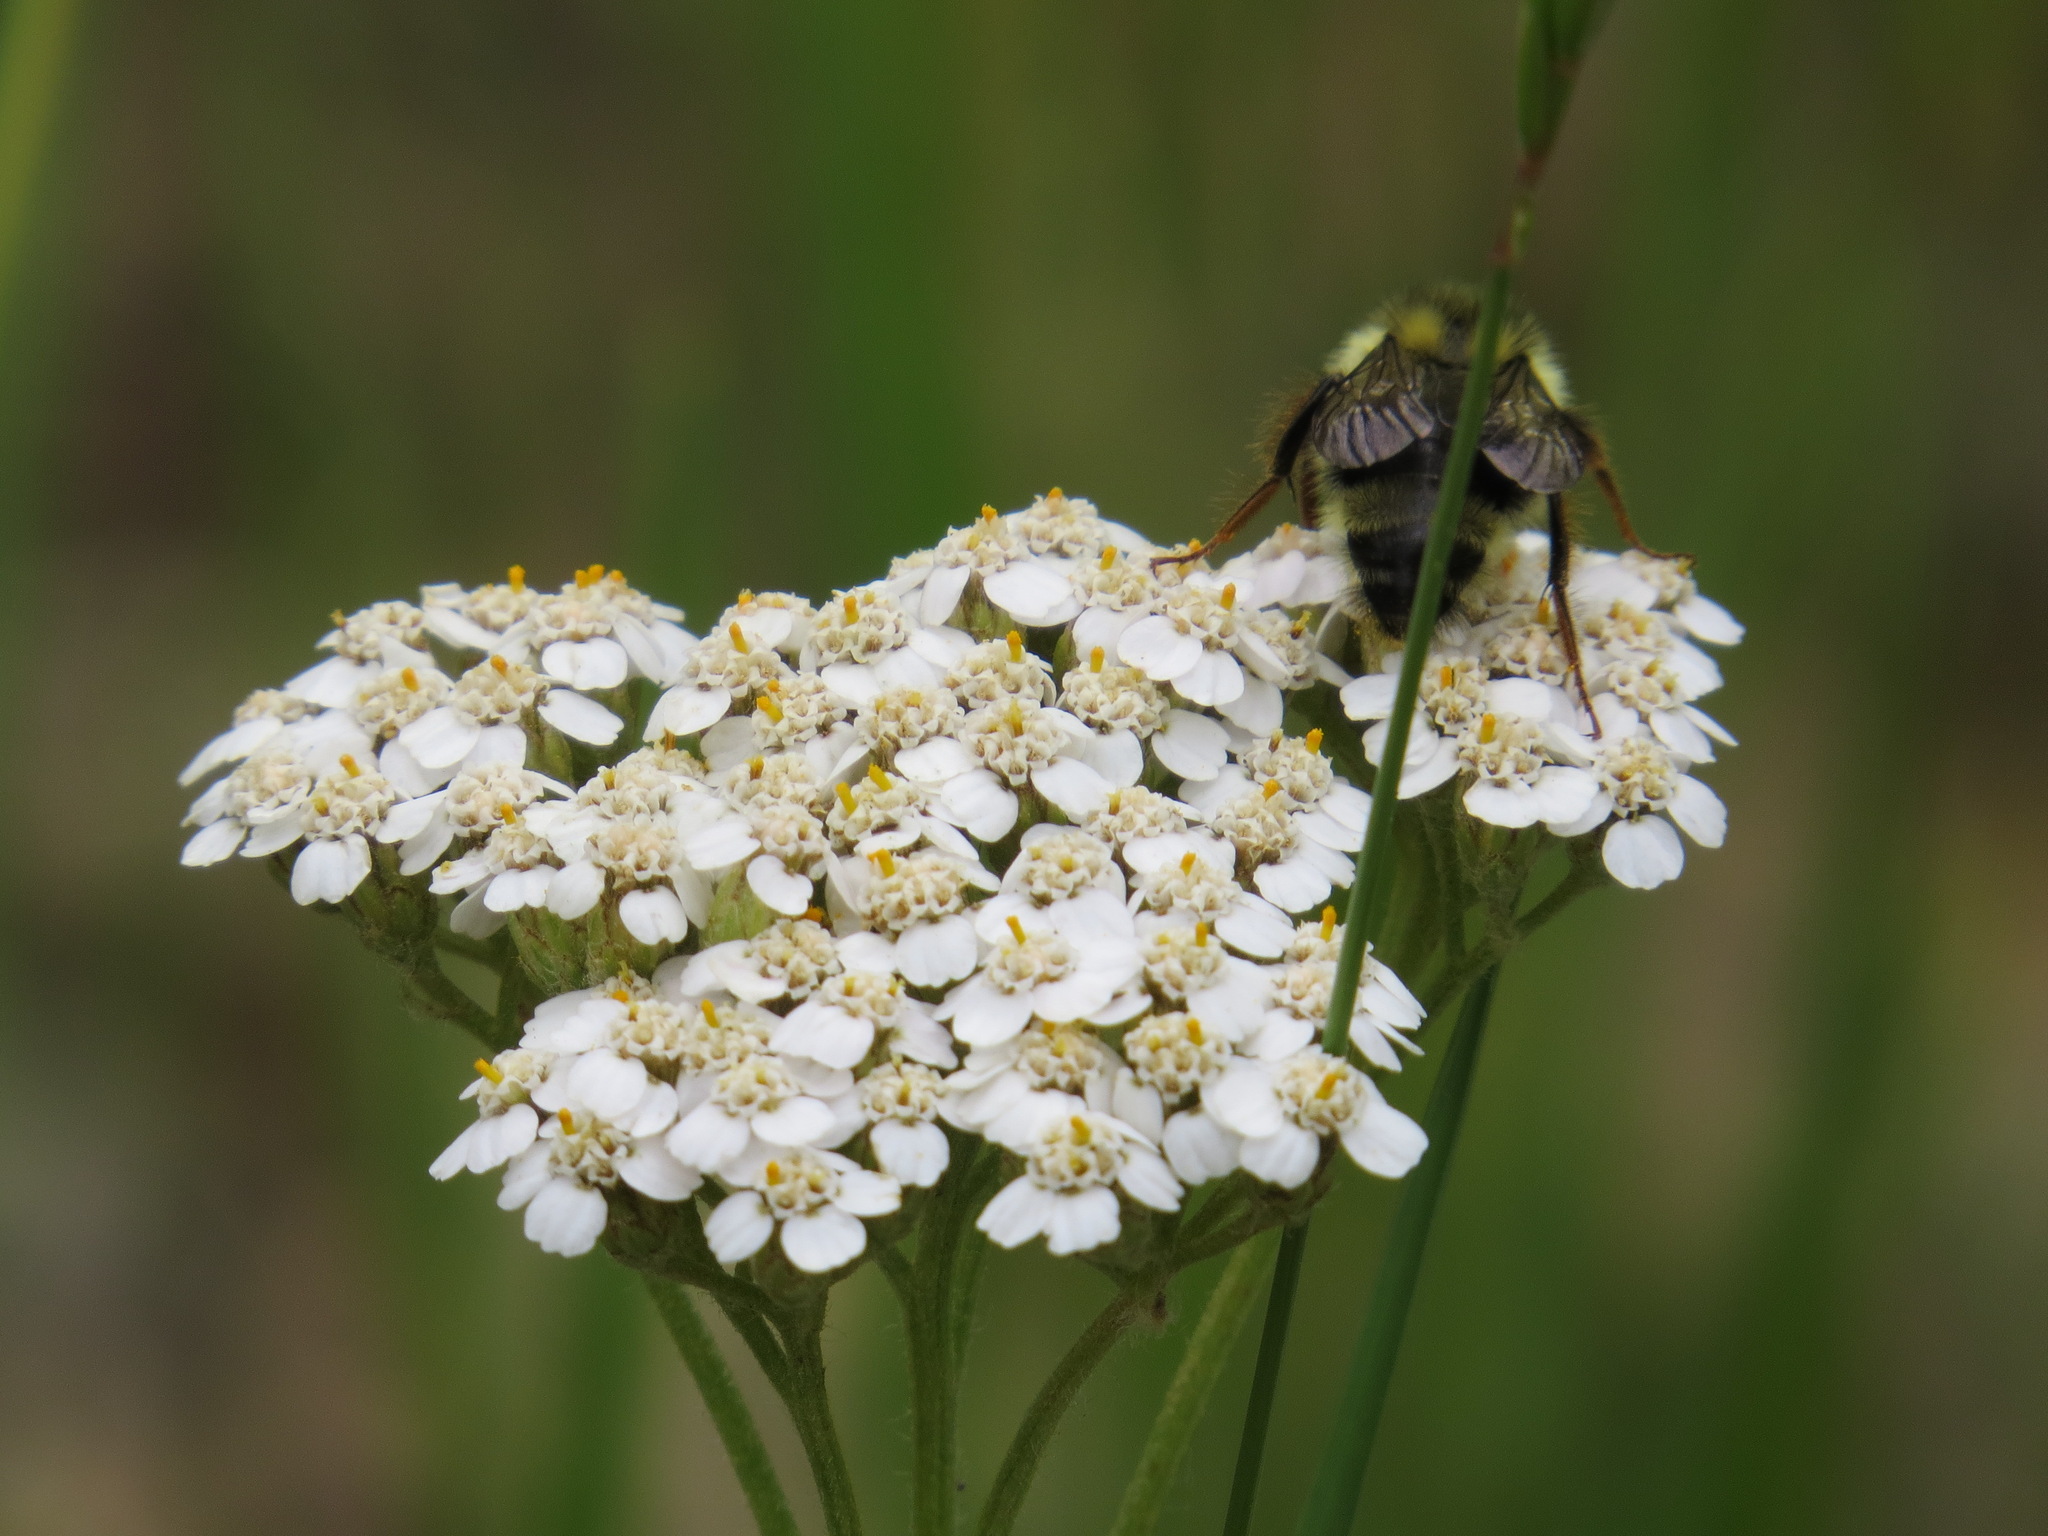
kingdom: Animalia
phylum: Arthropoda
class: Insecta
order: Hymenoptera
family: Apidae
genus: Bombus
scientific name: Bombus vancouverensis
